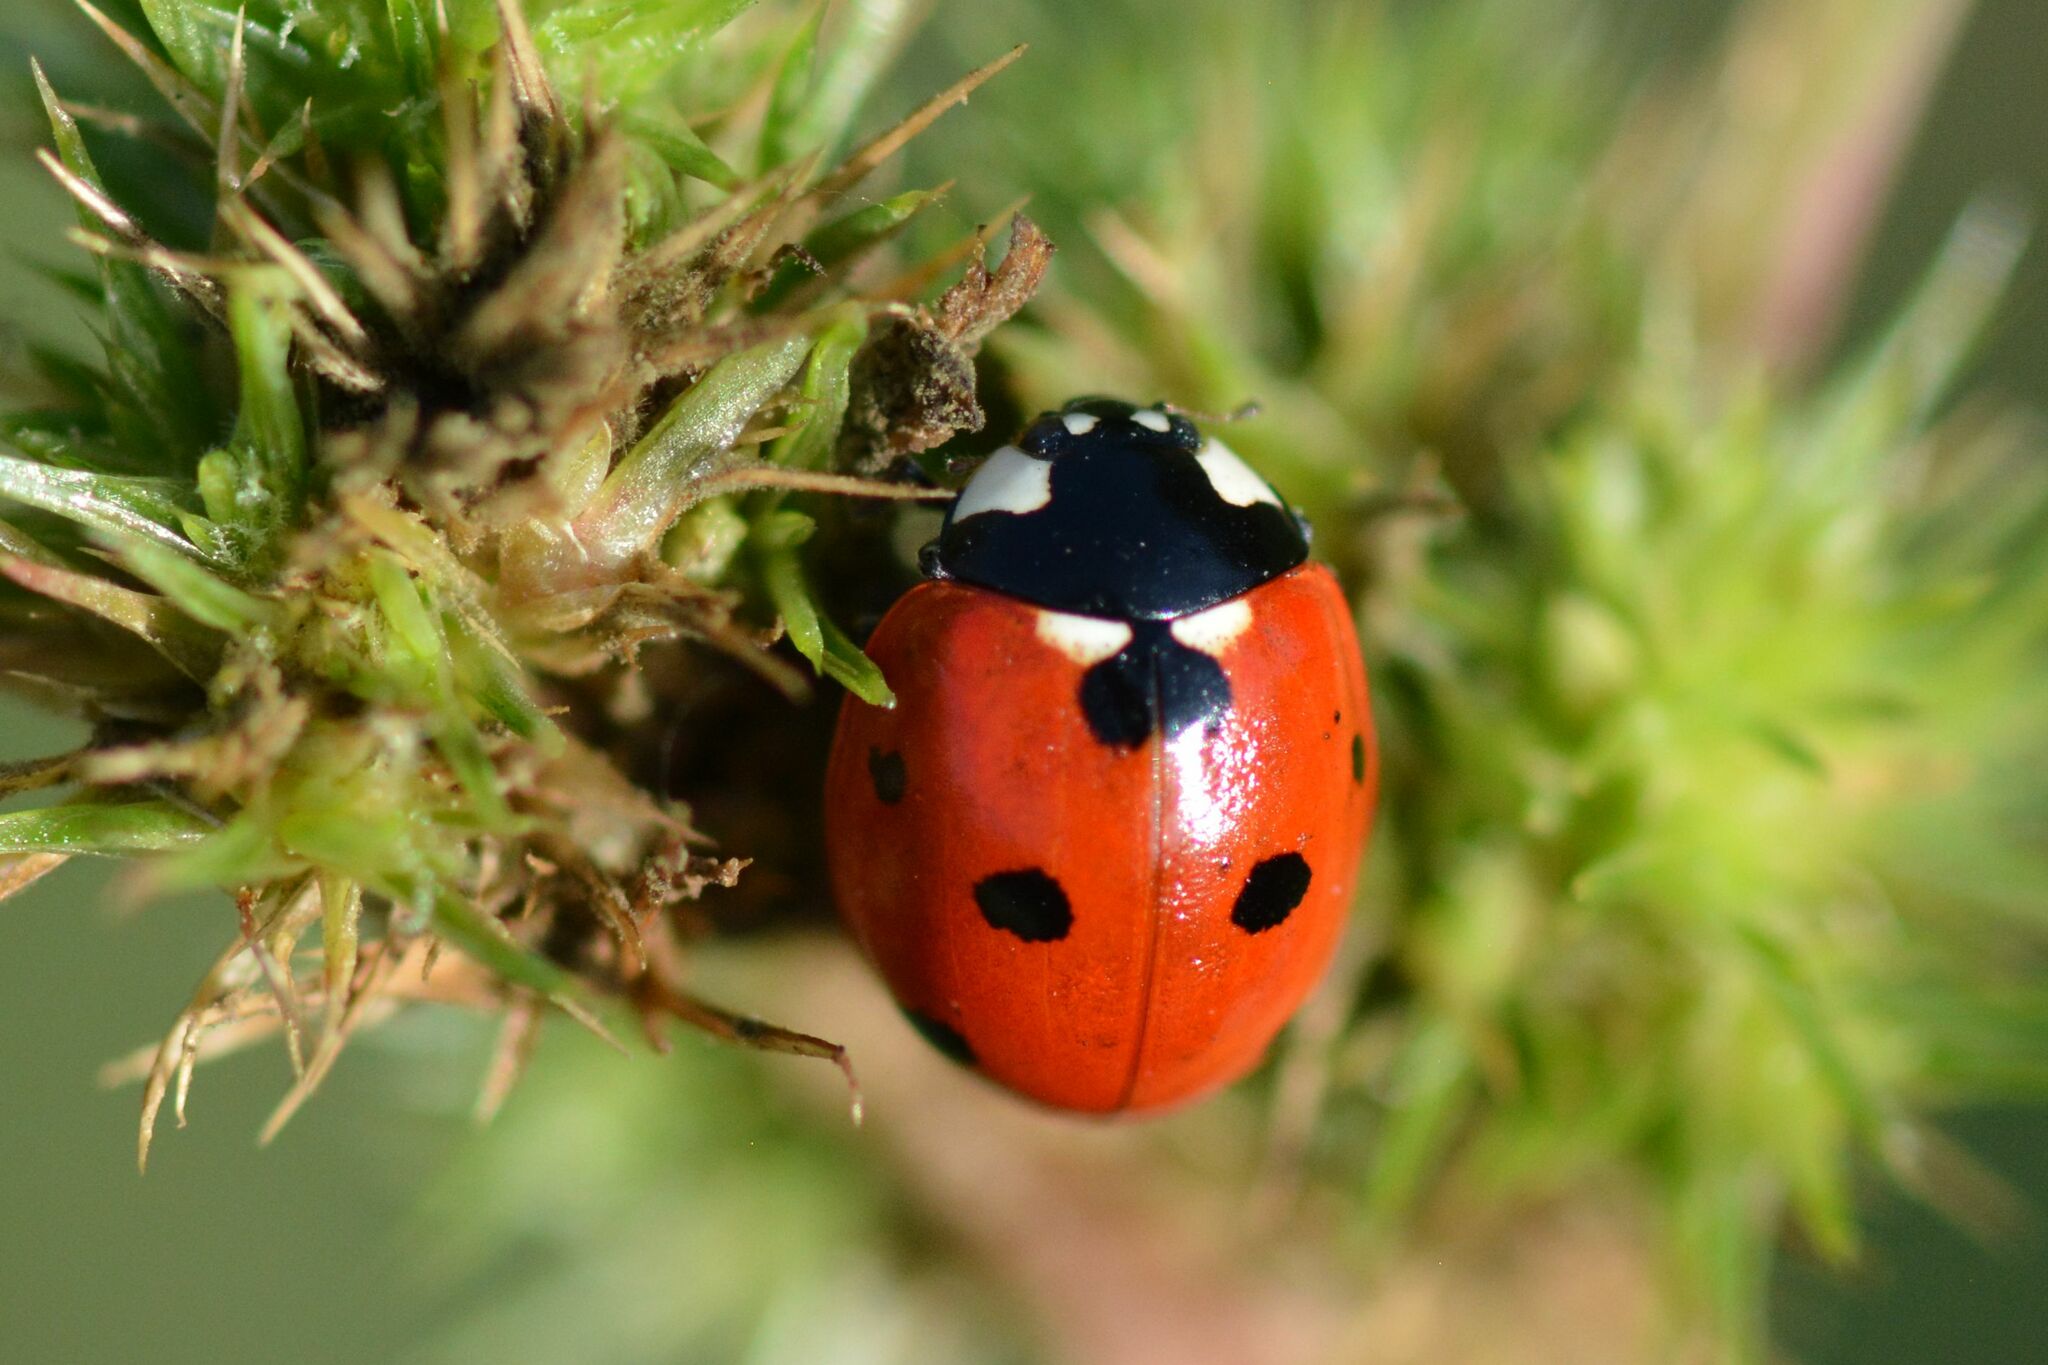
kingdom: Animalia
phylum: Arthropoda
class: Insecta
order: Coleoptera
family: Coccinellidae
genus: Coccinella
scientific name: Coccinella septempunctata
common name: Sevenspotted lady beetle
